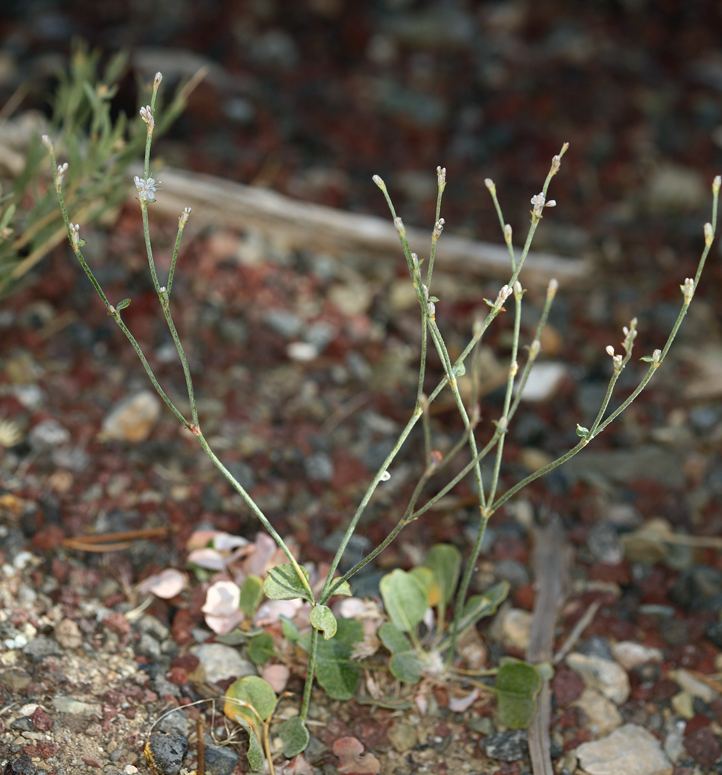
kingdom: Plantae
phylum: Tracheophyta
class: Magnoliopsida
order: Caryophyllales
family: Polygonaceae
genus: Eriogonum
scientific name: Eriogonum panamintense
